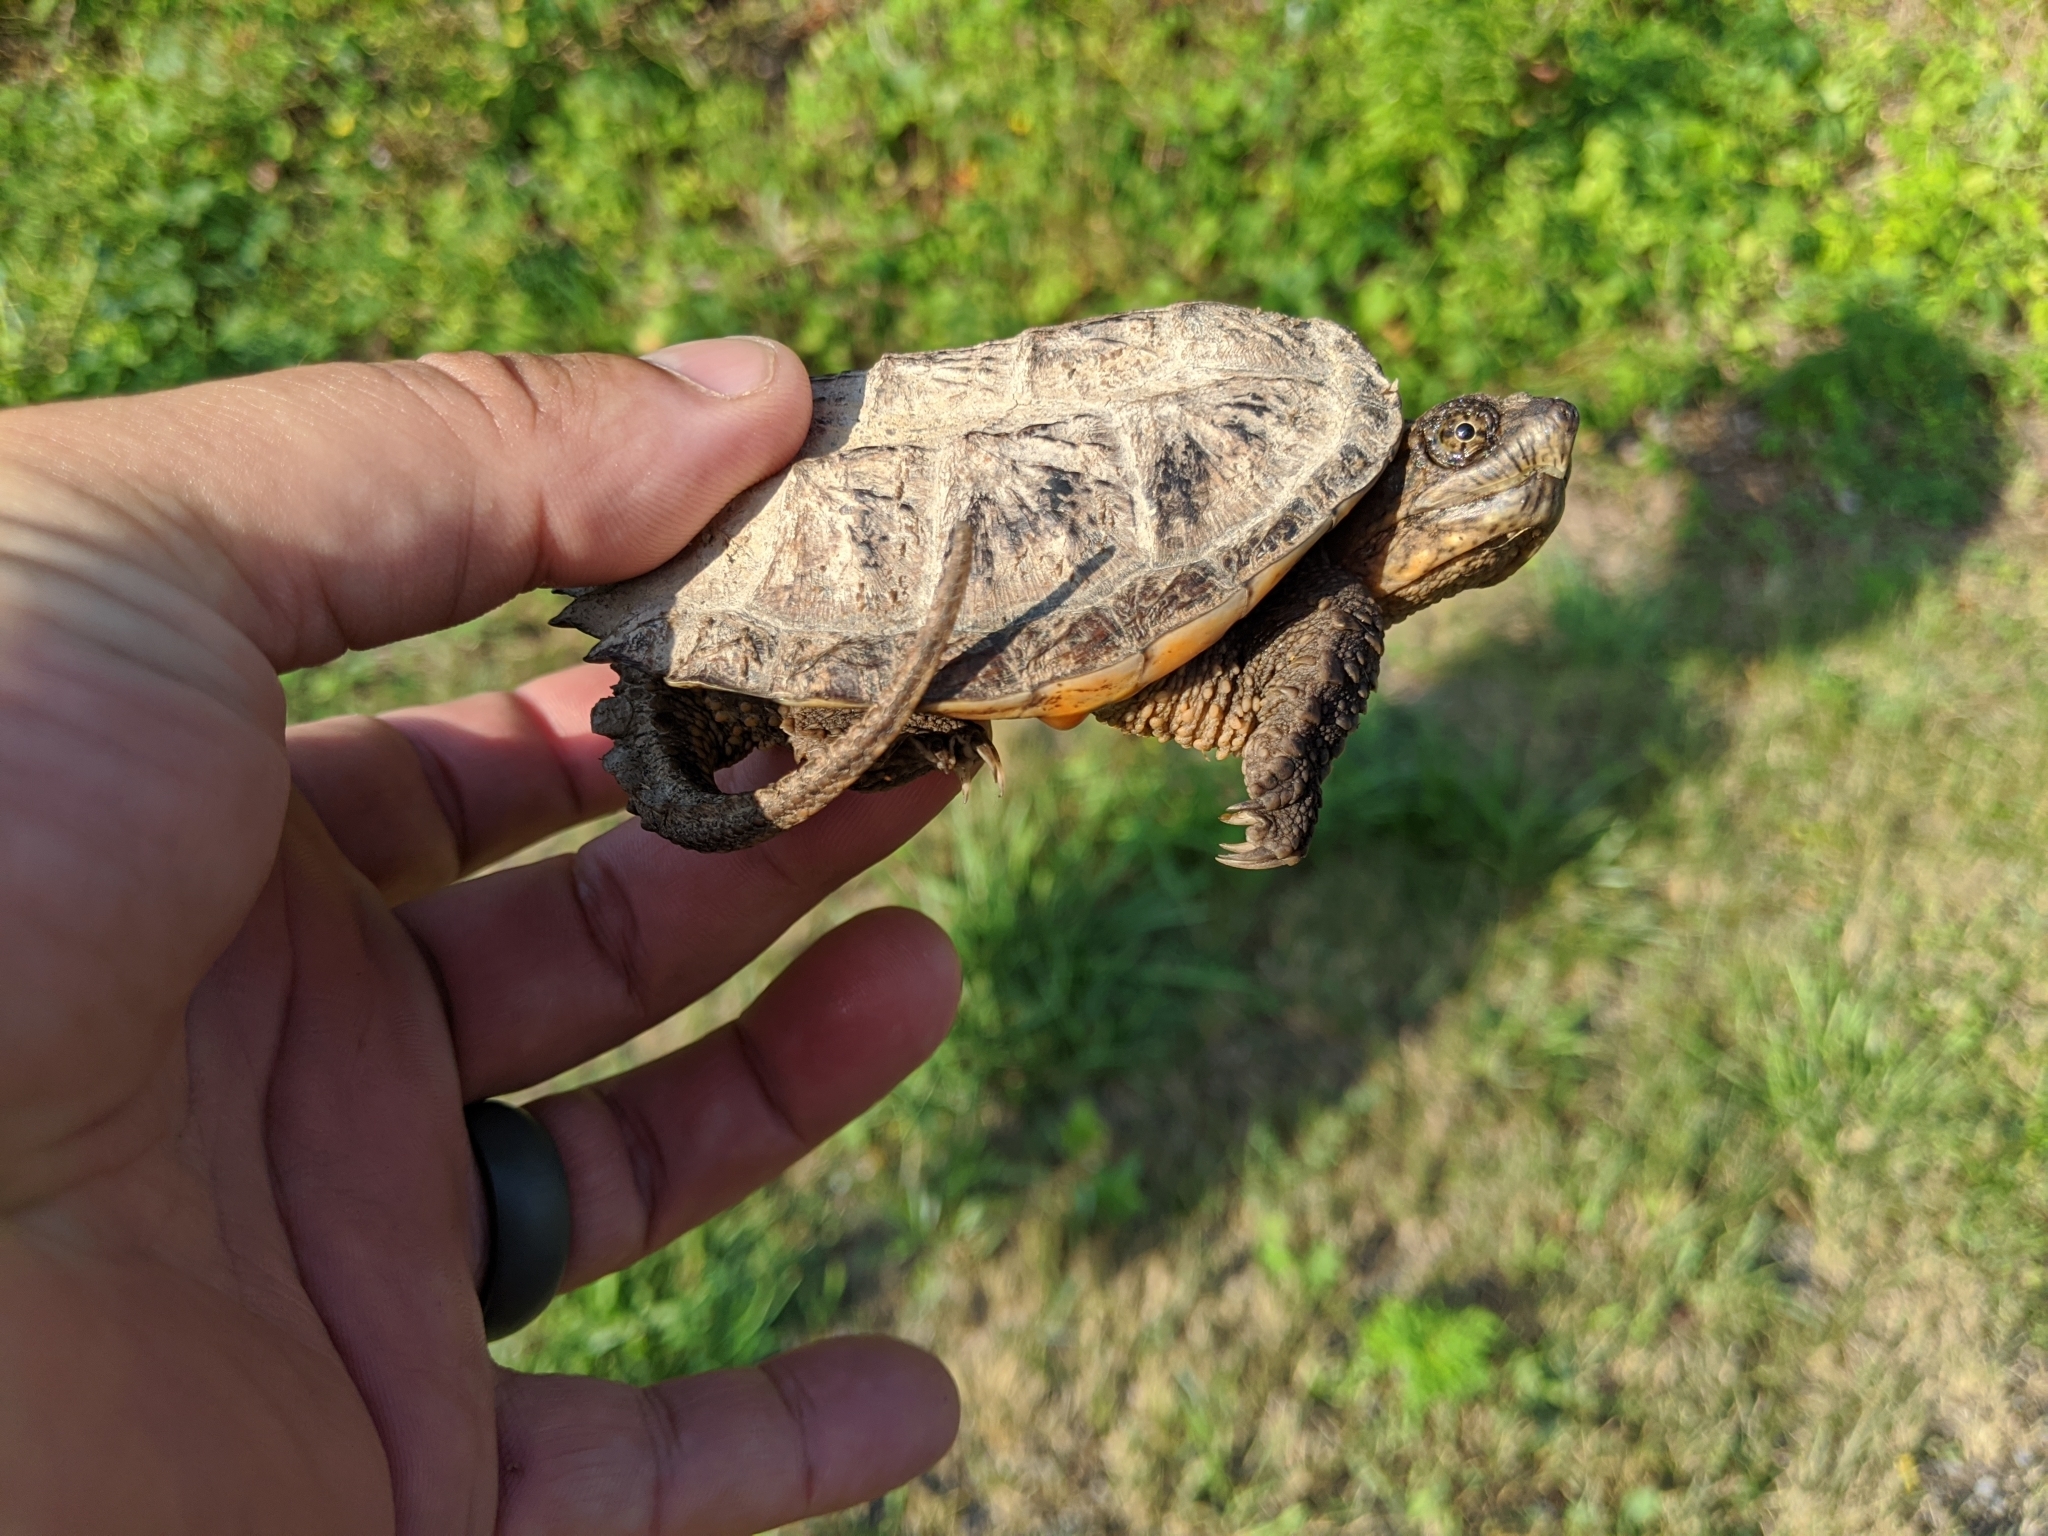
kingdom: Animalia
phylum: Chordata
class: Testudines
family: Chelydridae
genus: Chelydra
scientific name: Chelydra serpentina
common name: Common snapping turtle
